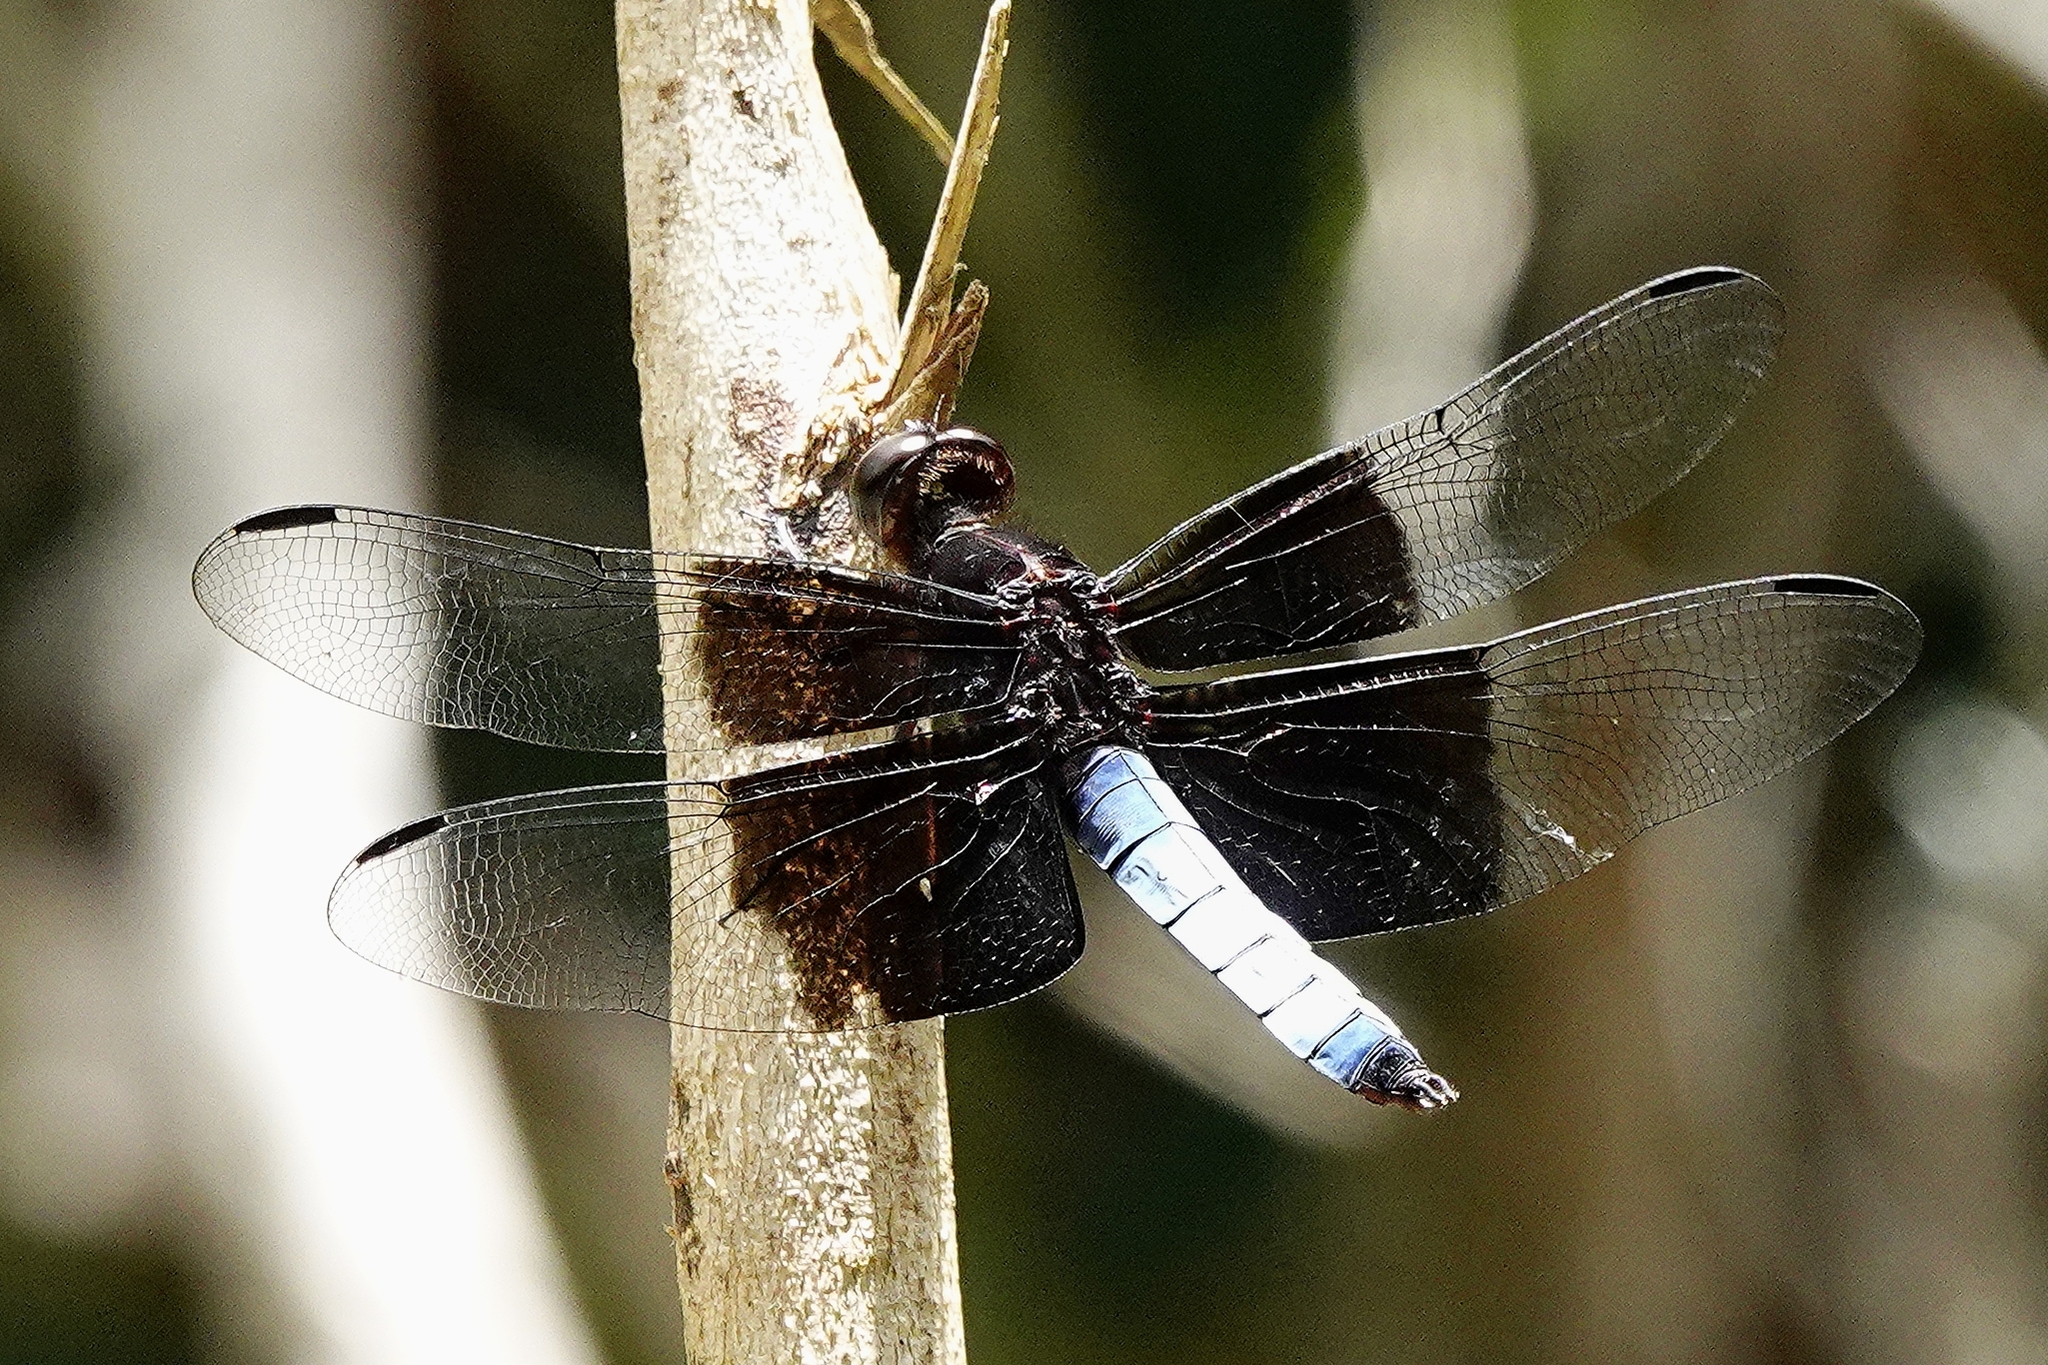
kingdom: Animalia
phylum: Arthropoda
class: Insecta
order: Odonata
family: Libellulidae
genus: Thermorthemis
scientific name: Thermorthemis madagascariensis
